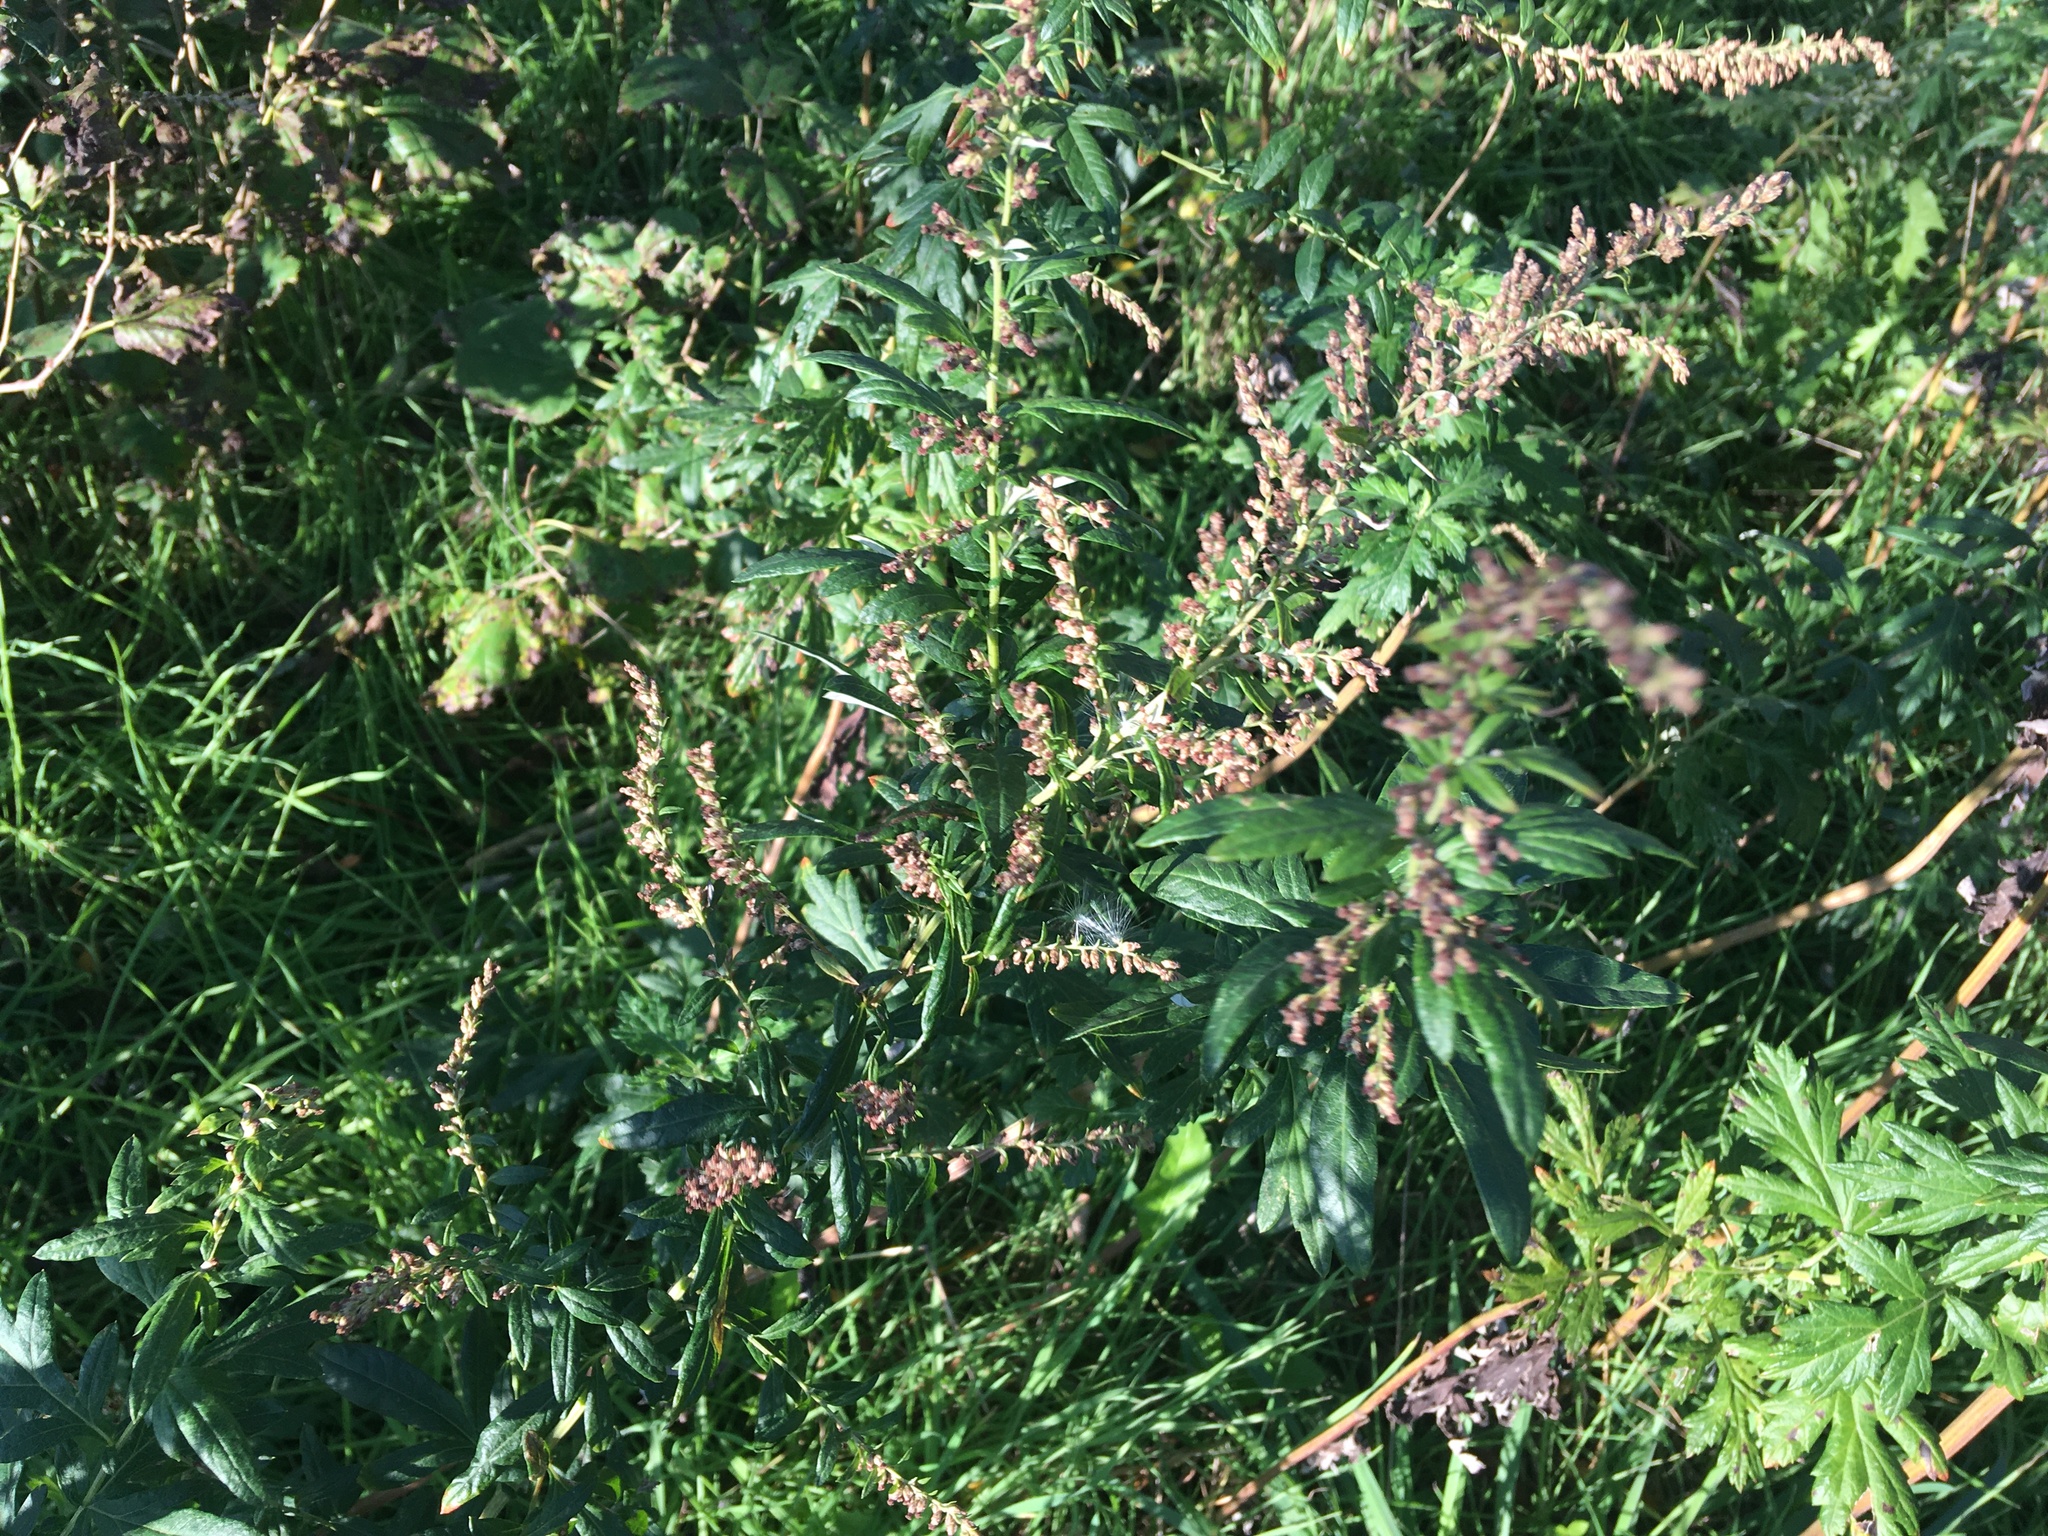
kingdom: Plantae
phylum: Tracheophyta
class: Magnoliopsida
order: Asterales
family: Asteraceae
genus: Artemisia
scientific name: Artemisia vulgaris
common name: Mugwort
